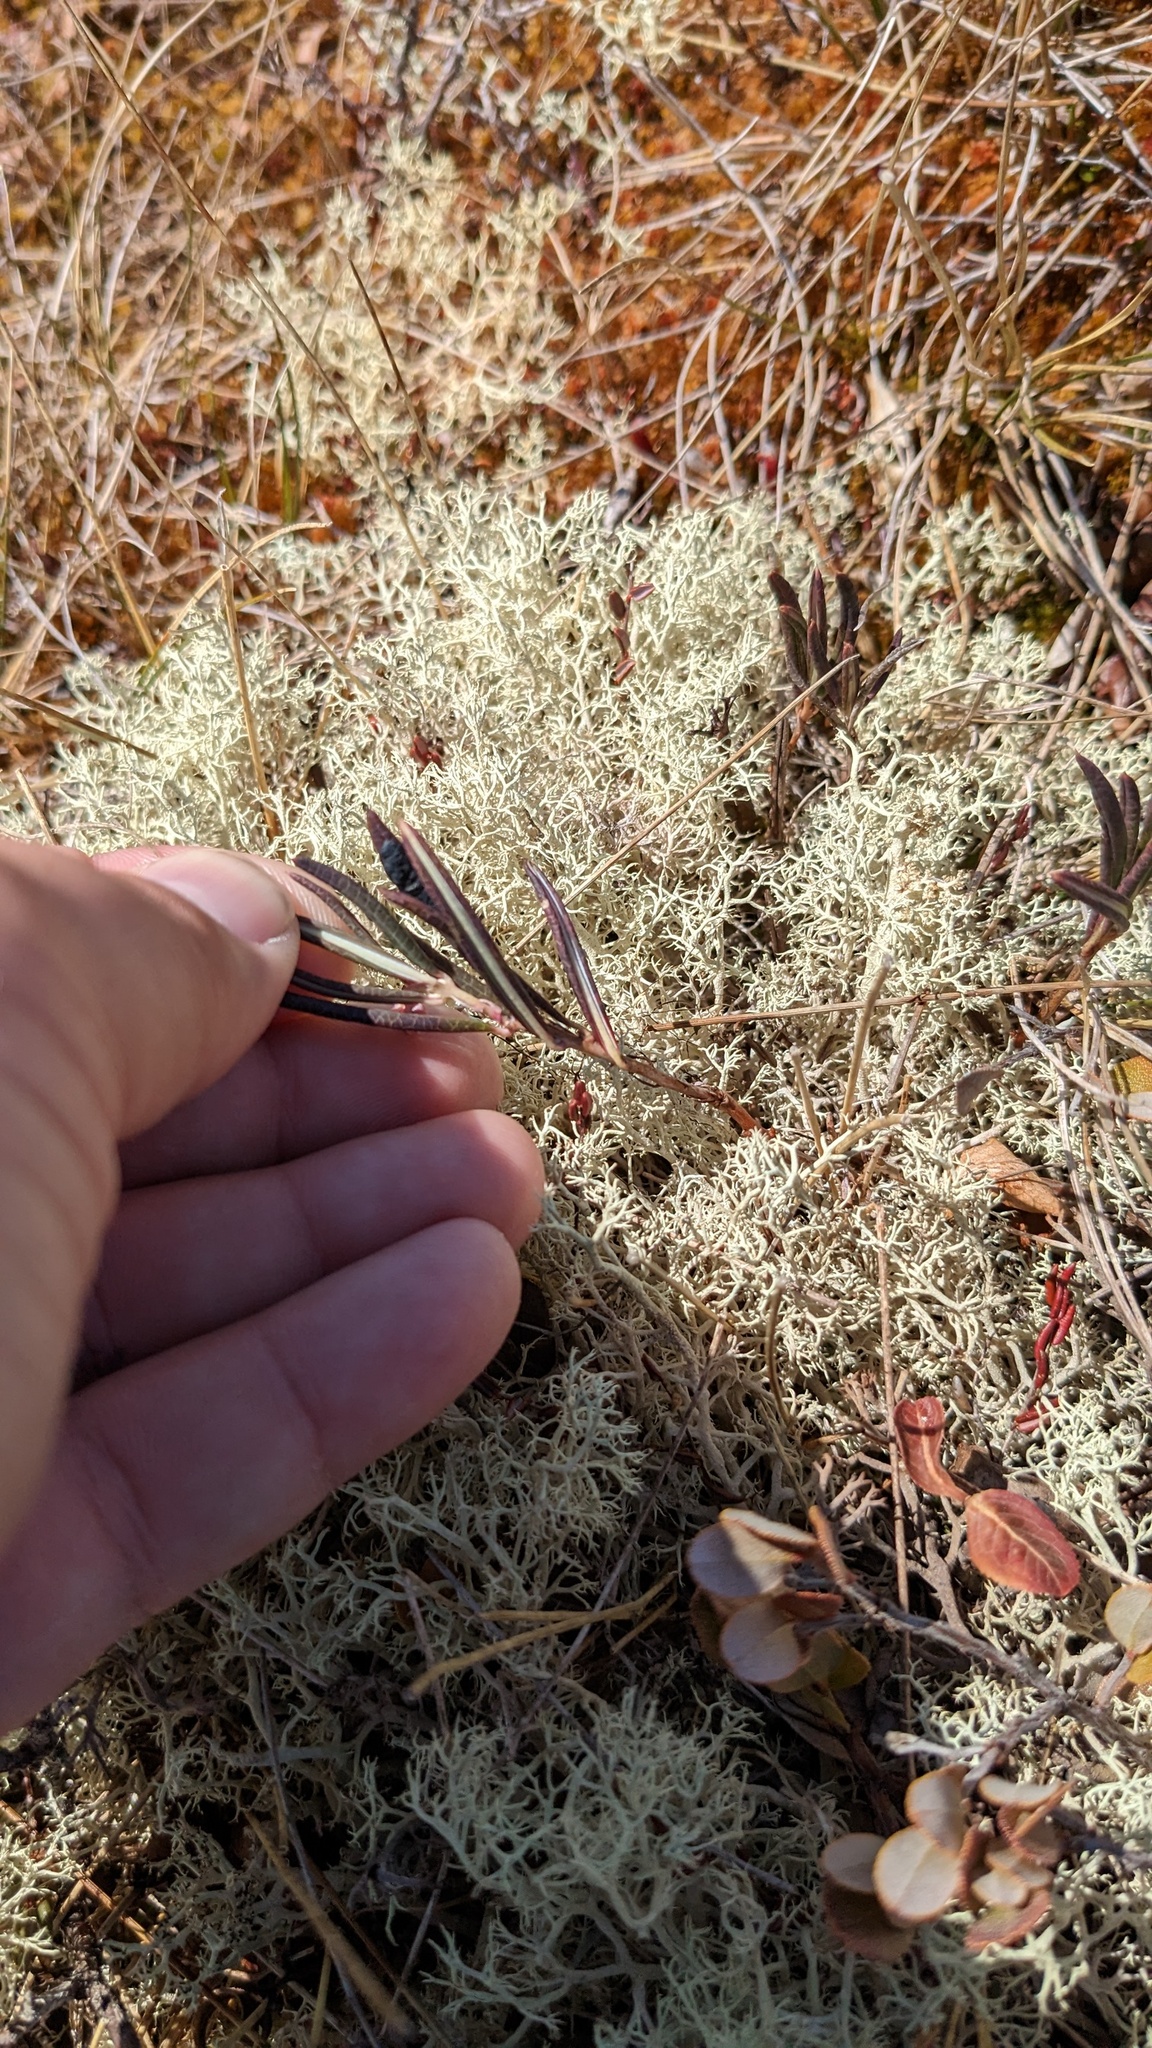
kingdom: Plantae
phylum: Tracheophyta
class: Magnoliopsida
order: Ericales
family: Ericaceae
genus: Andromeda
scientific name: Andromeda polifolia
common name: Bog-rosemary
